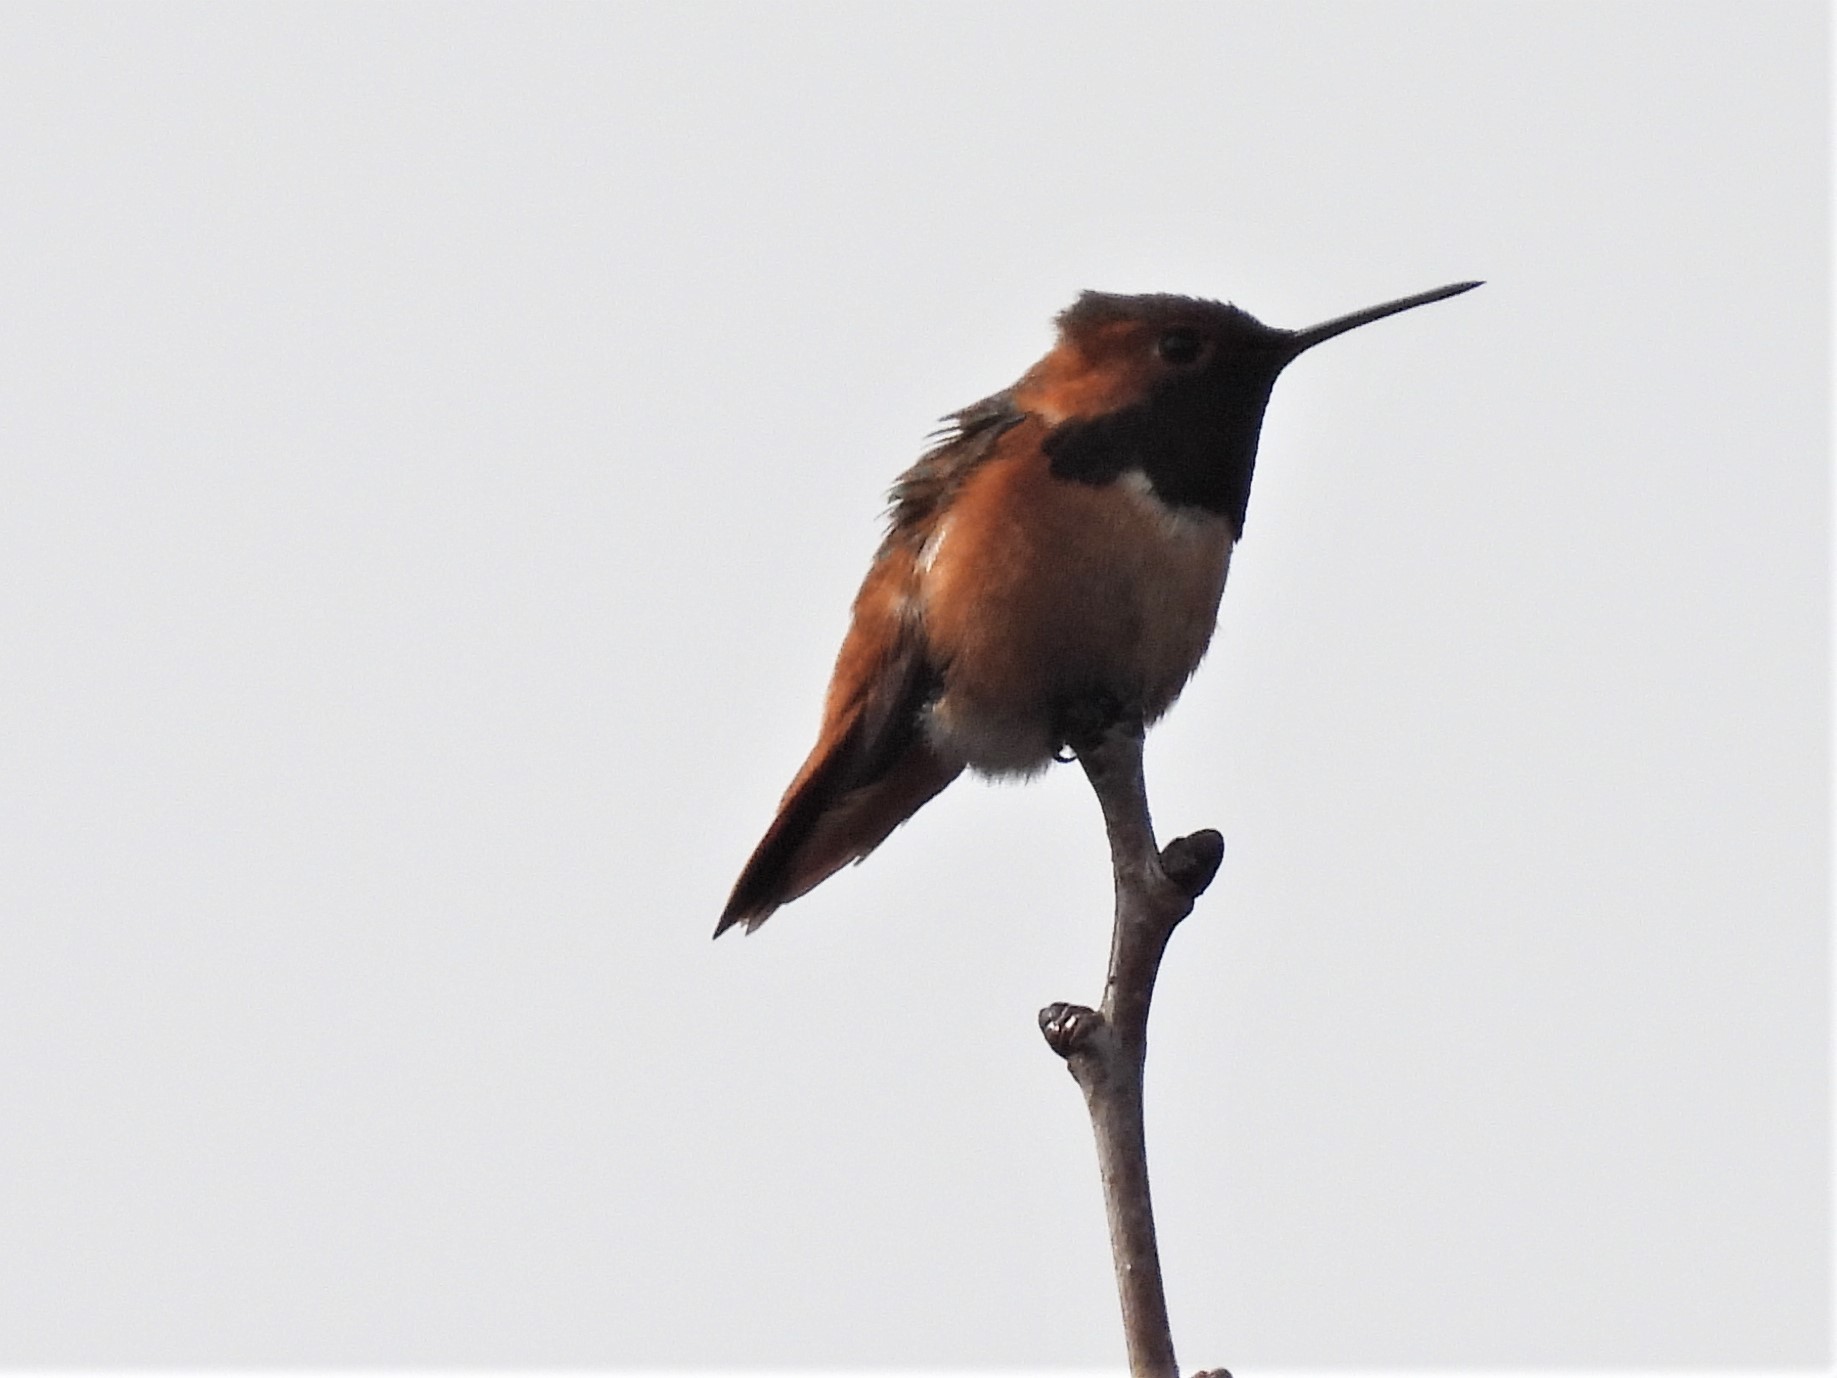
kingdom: Animalia
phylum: Chordata
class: Aves
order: Apodiformes
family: Trochilidae
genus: Selasphorus
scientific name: Selasphorus sasin
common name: Allen's hummingbird
